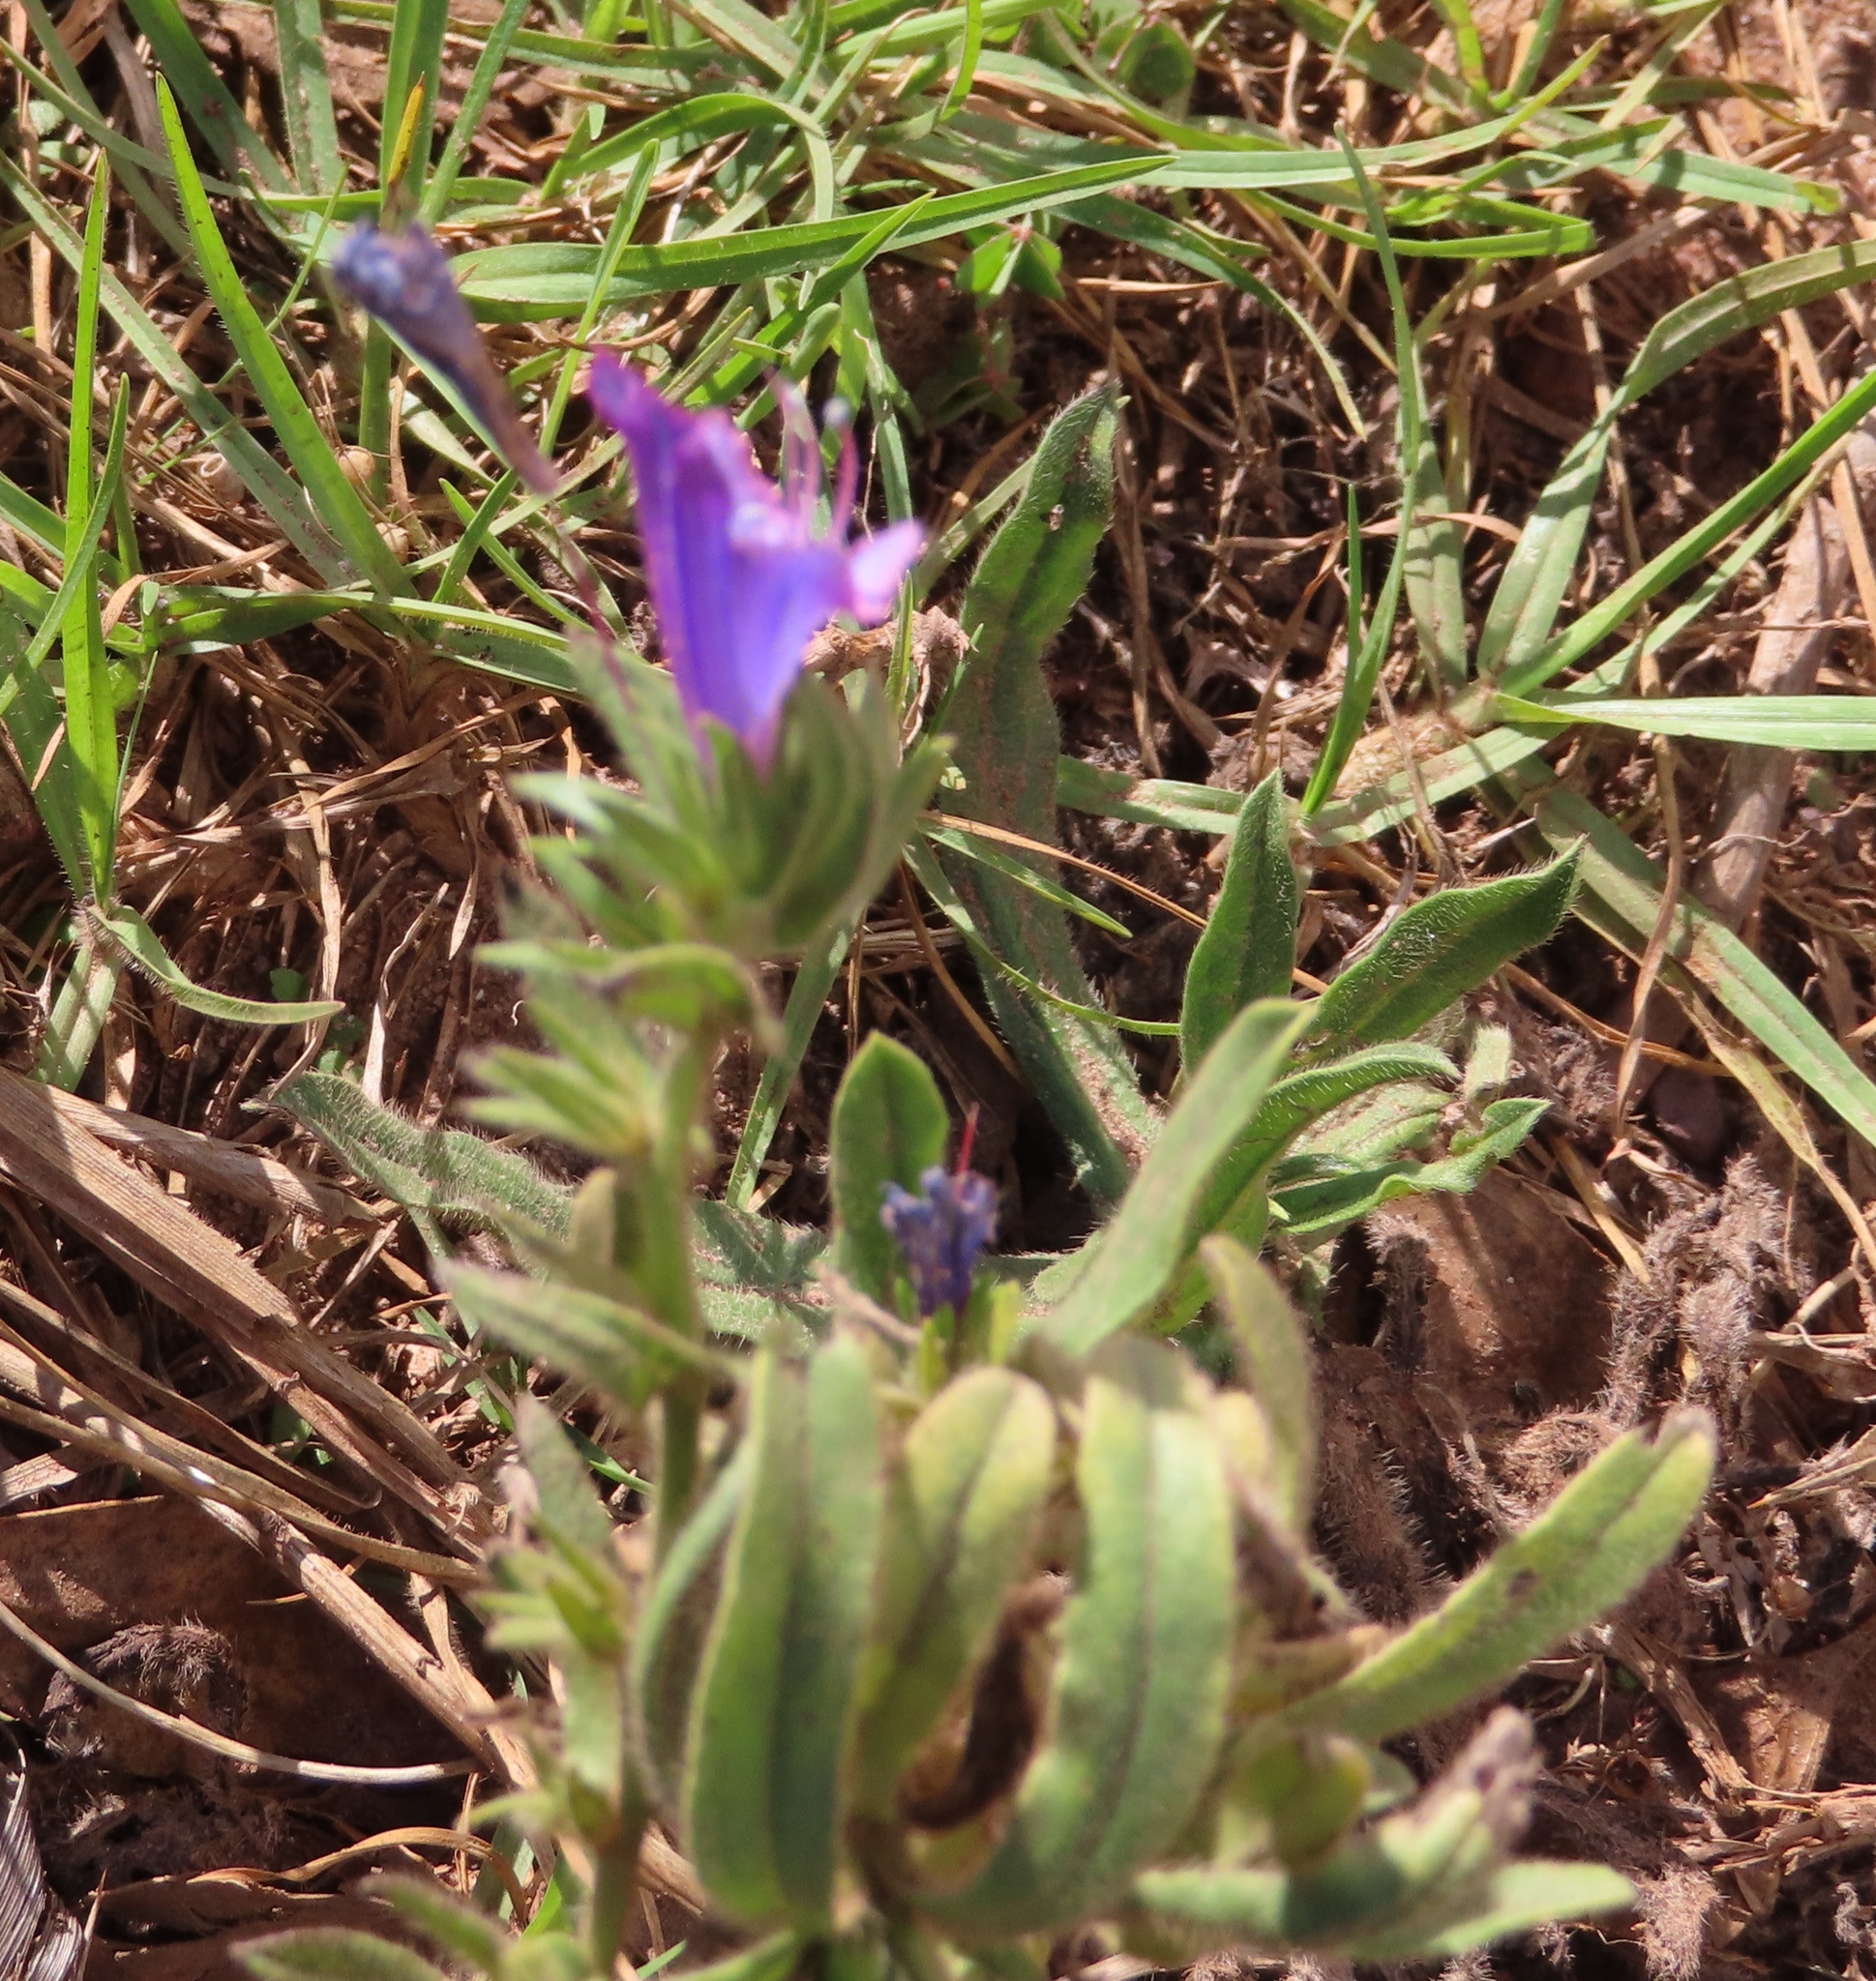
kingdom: Plantae
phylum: Tracheophyta
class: Magnoliopsida
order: Boraginales
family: Boraginaceae
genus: Echium
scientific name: Echium plantagineum
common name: Purple viper's-bugloss
